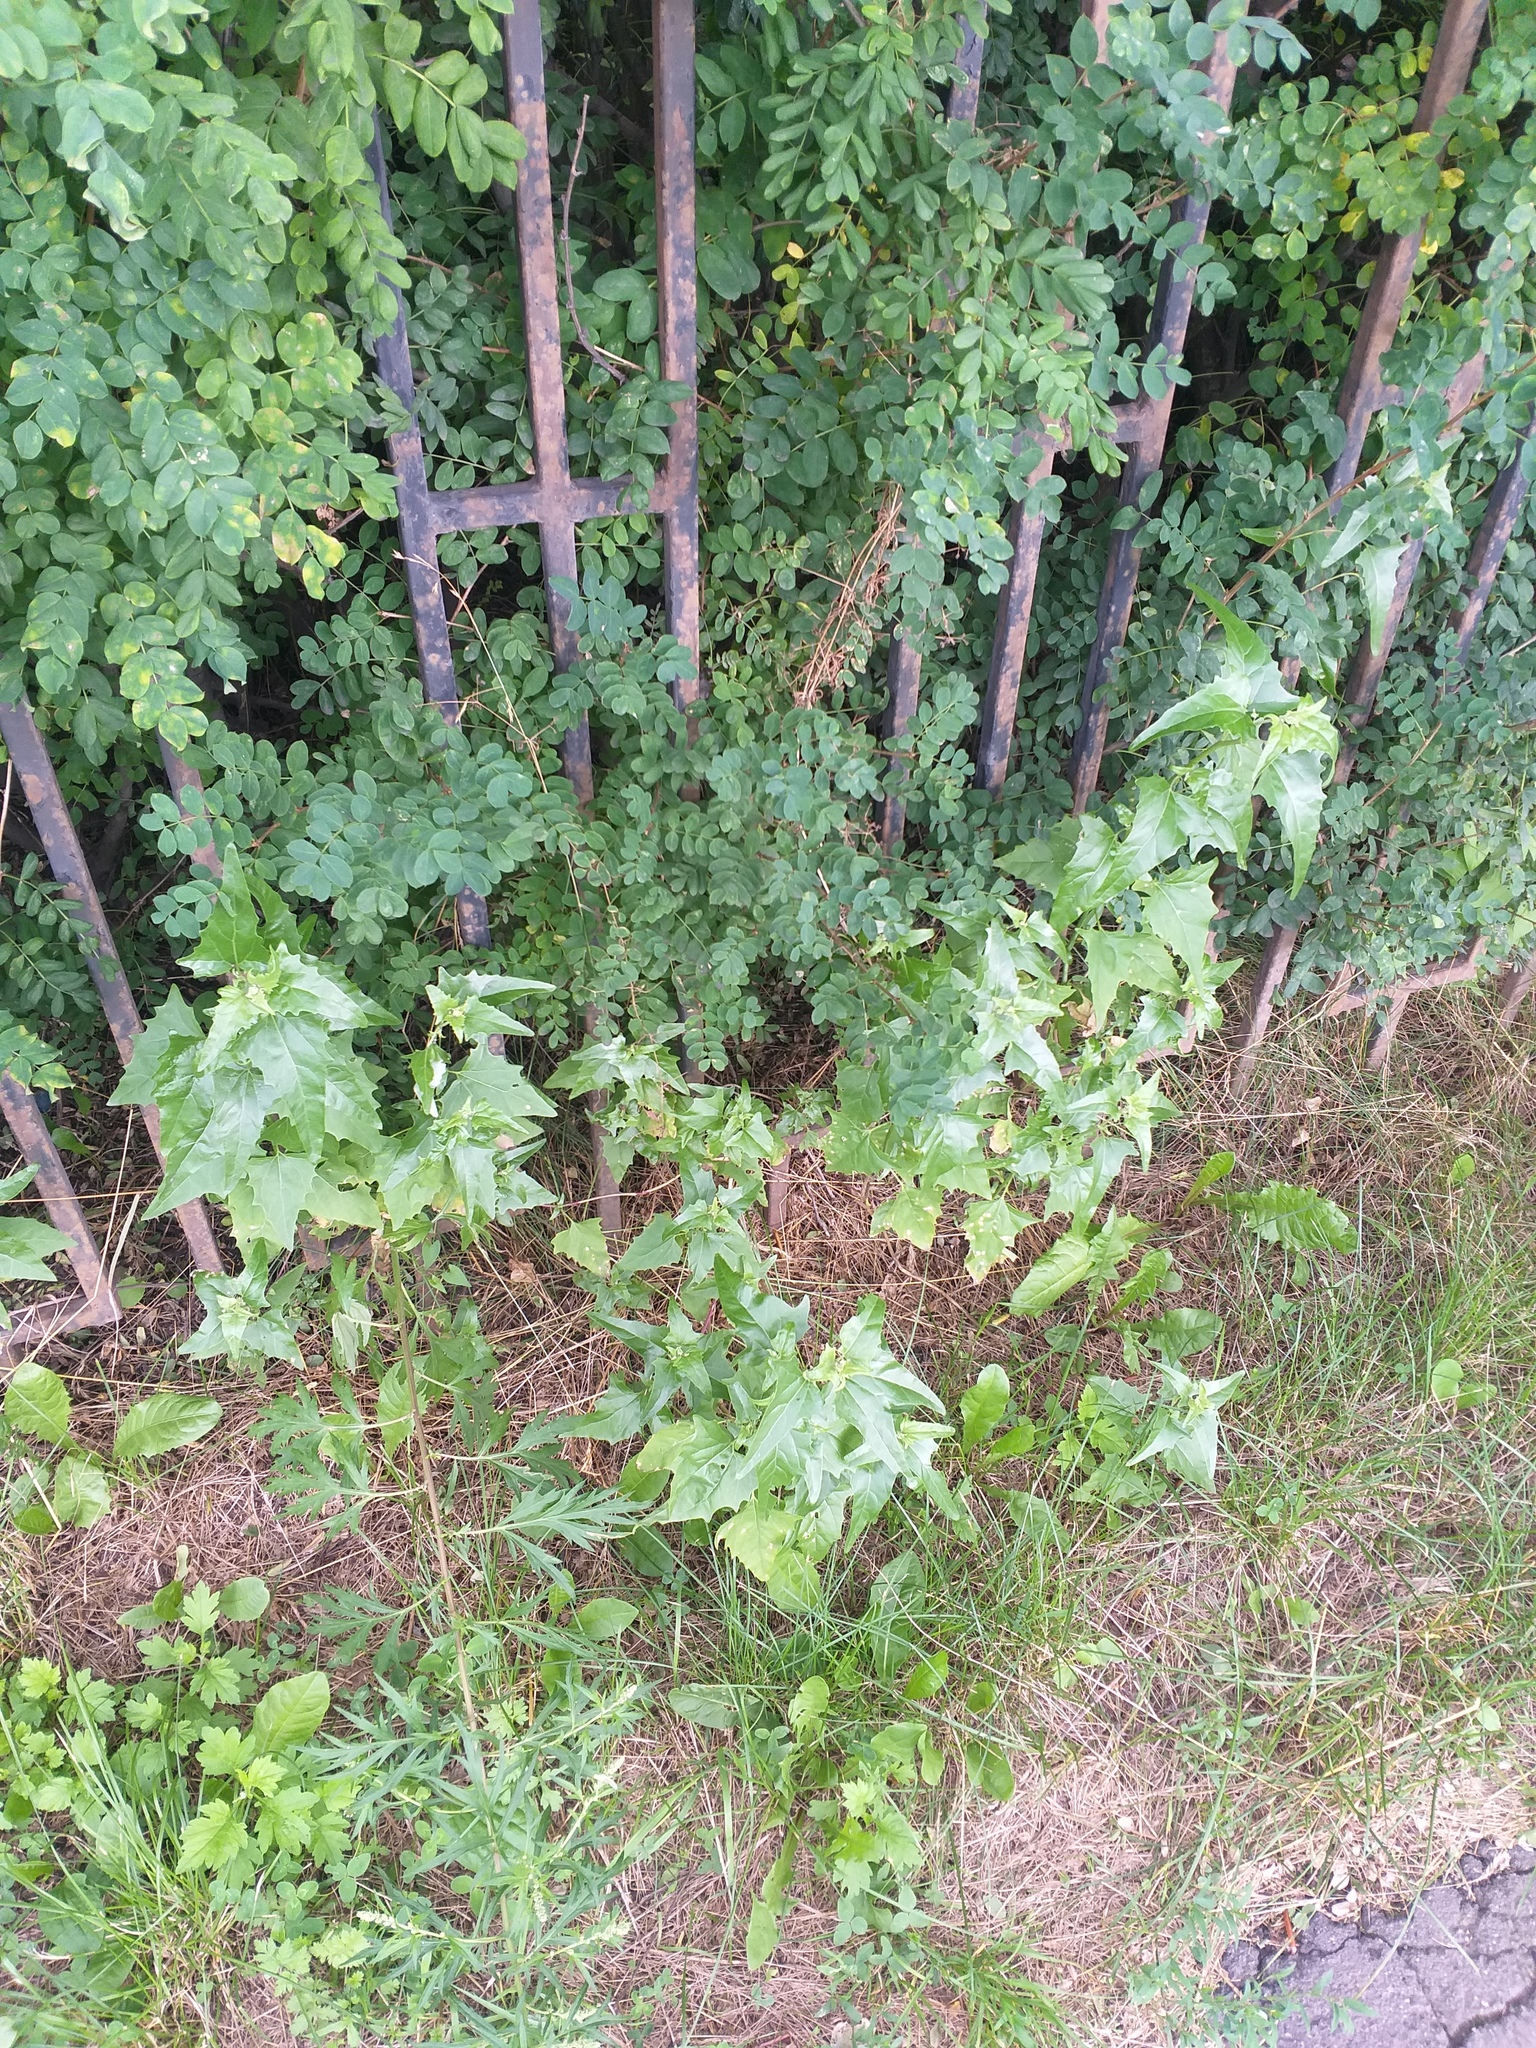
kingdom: Plantae
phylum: Tracheophyta
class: Magnoliopsida
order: Caryophyllales
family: Amaranthaceae
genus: Atriplex
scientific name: Atriplex sagittata
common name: Purple orache
